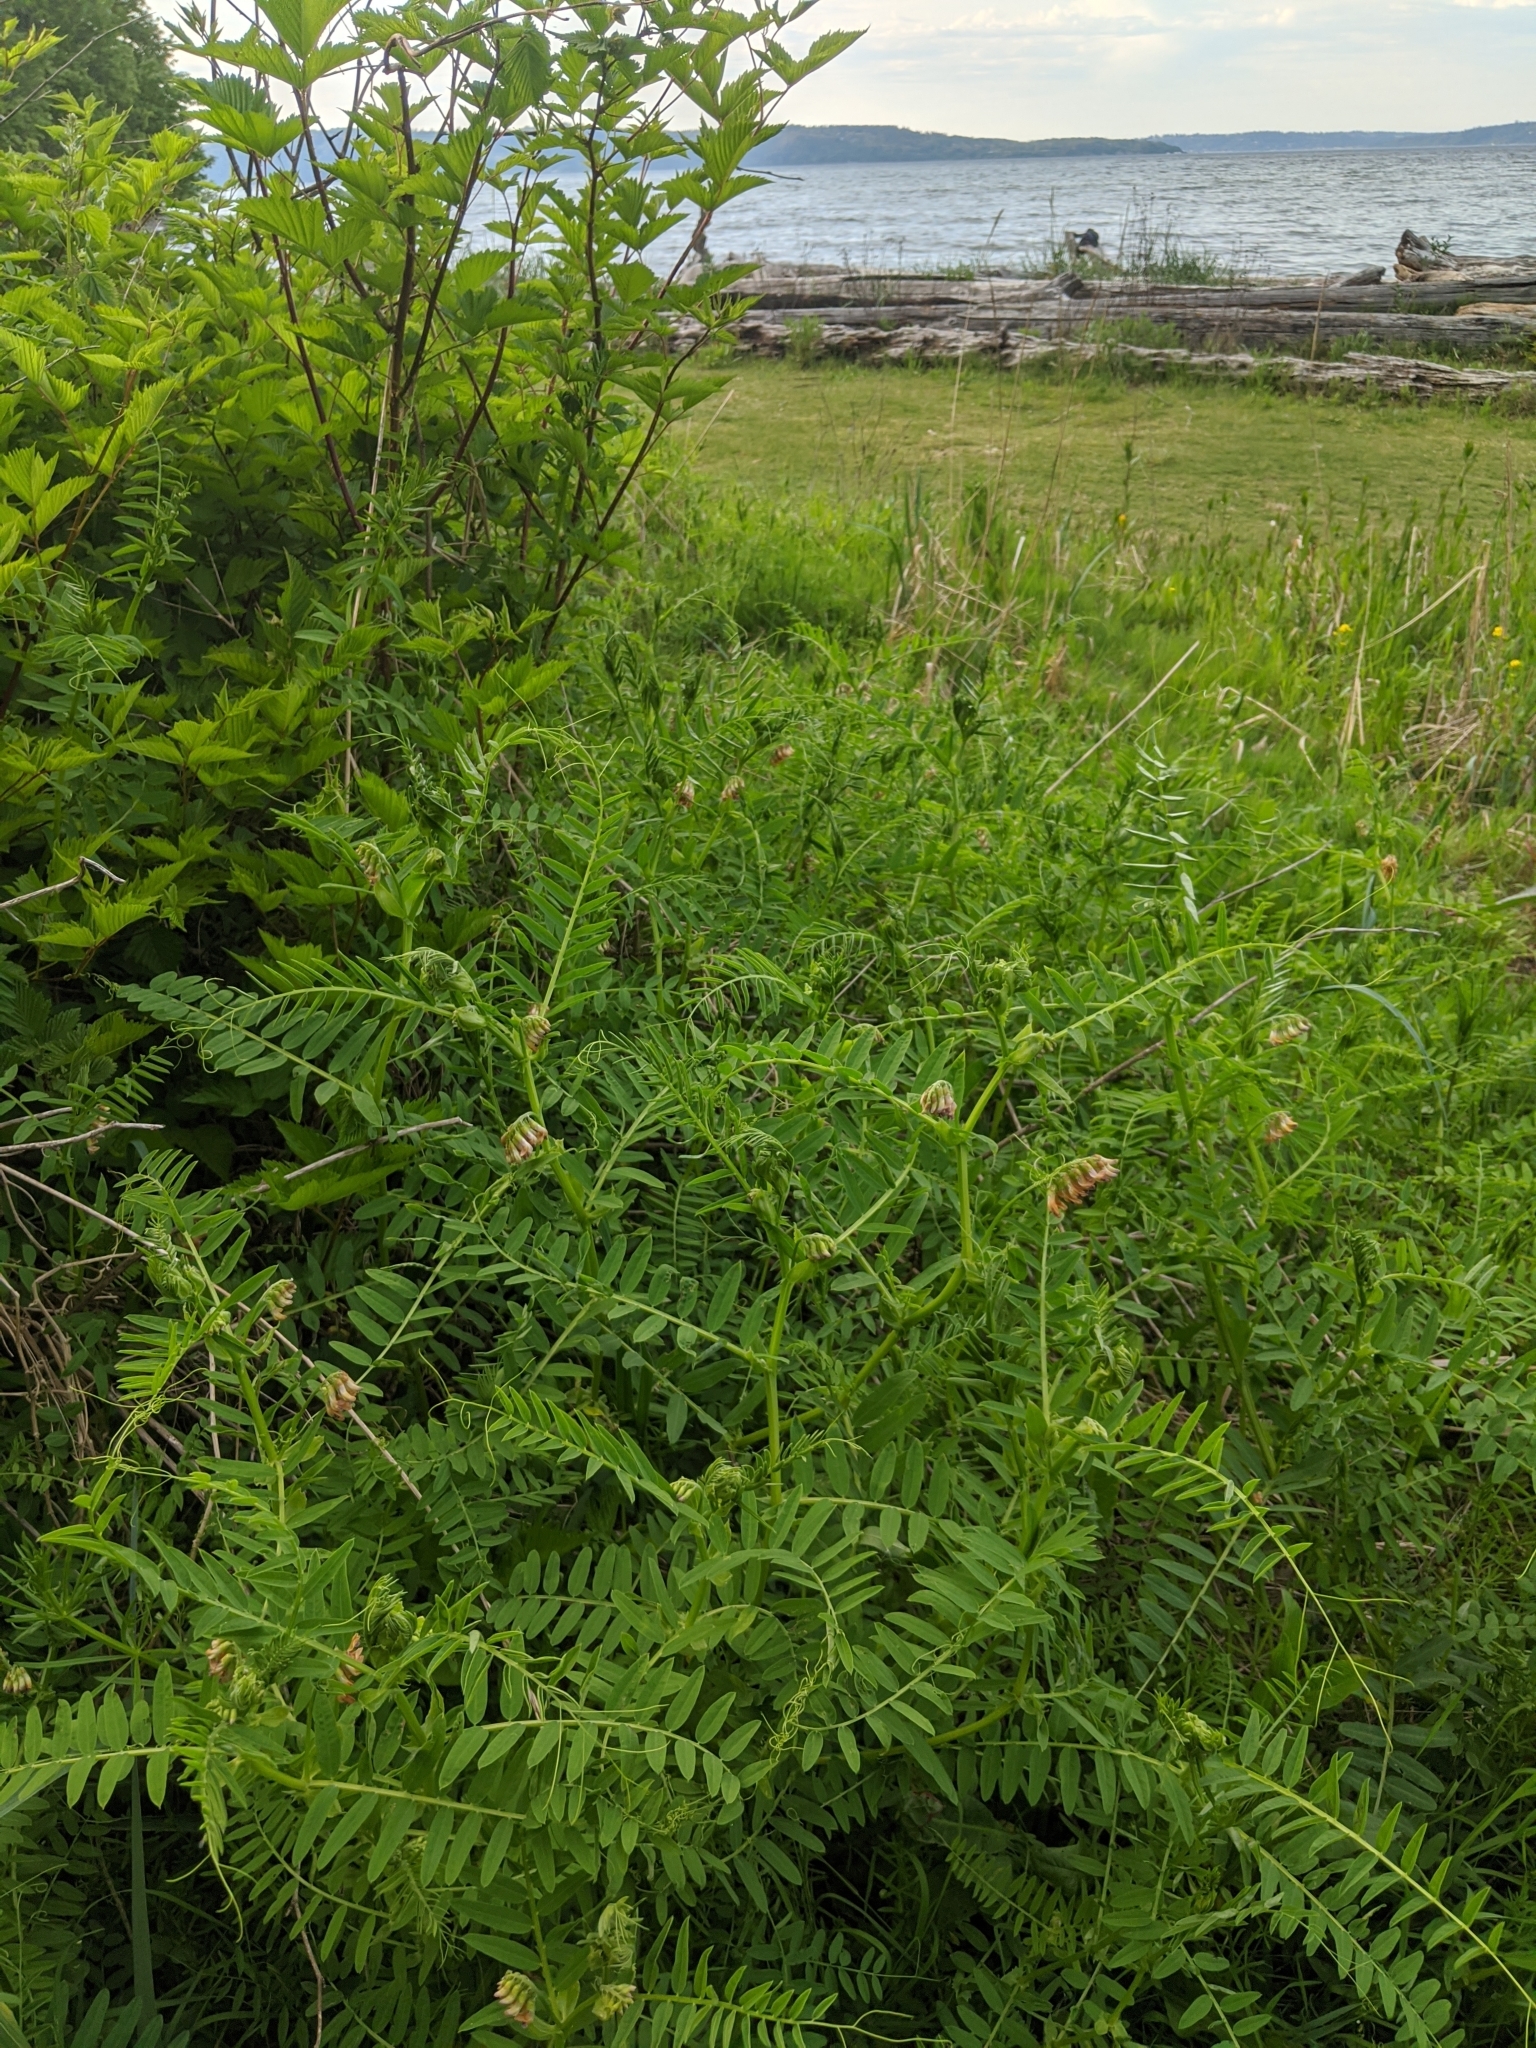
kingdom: Plantae
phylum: Tracheophyta
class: Magnoliopsida
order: Fabales
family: Fabaceae
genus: Vicia
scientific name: Vicia
